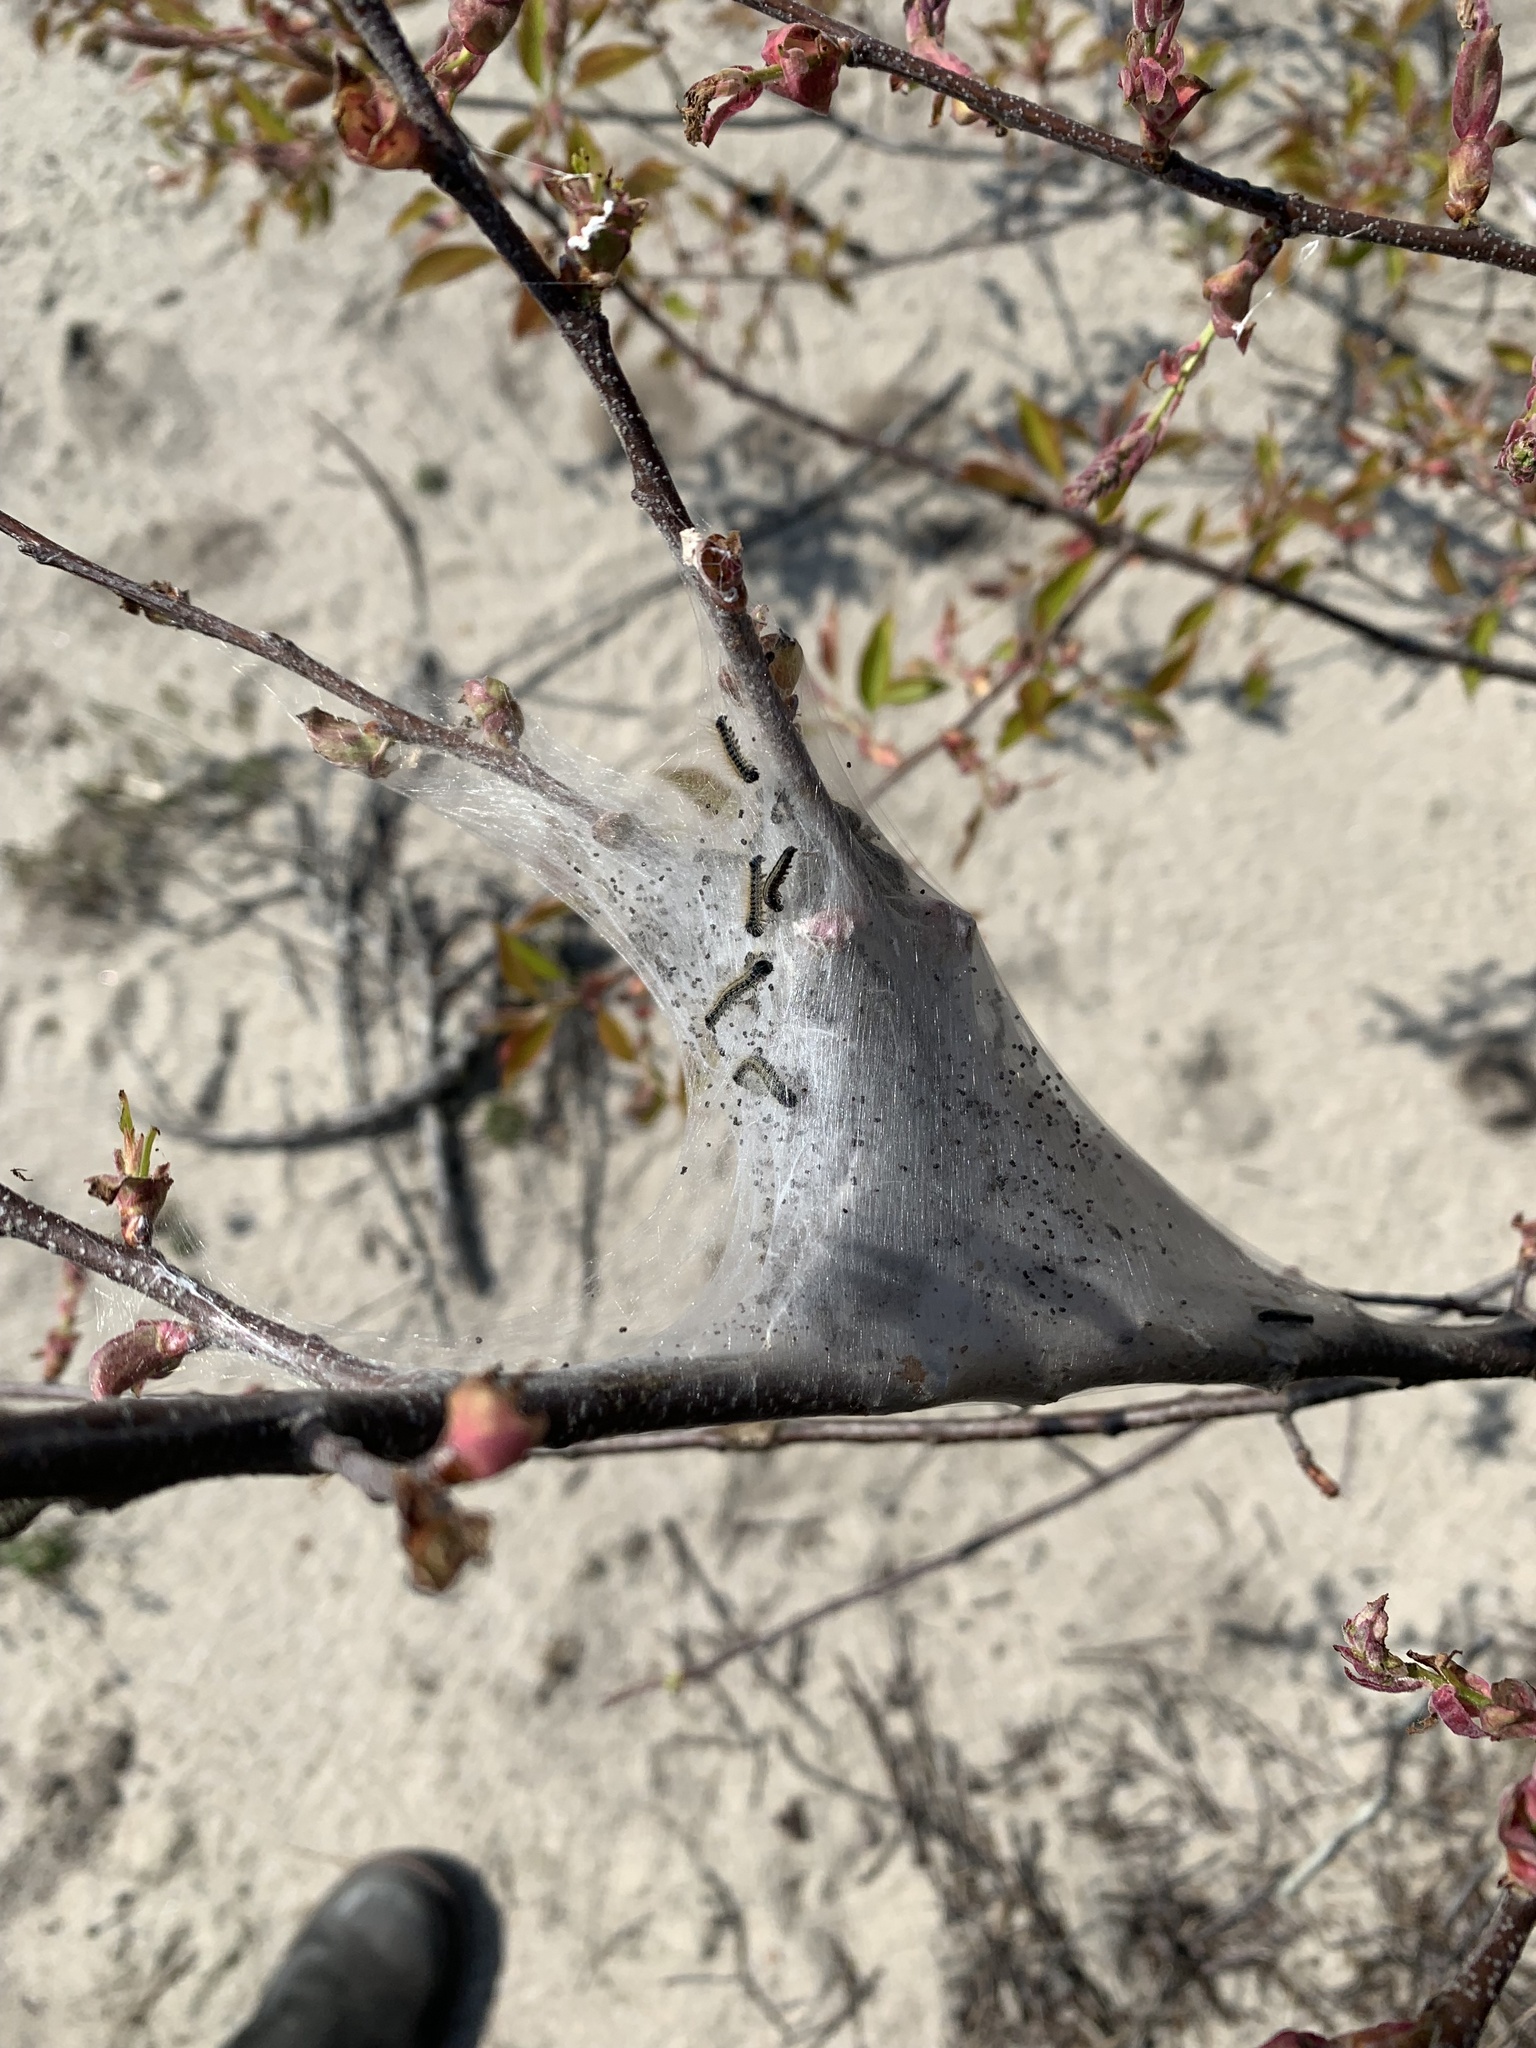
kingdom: Animalia
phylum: Arthropoda
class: Insecta
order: Lepidoptera
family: Lasiocampidae
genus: Malacosoma
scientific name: Malacosoma americana
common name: Eastern tent caterpillar moth
